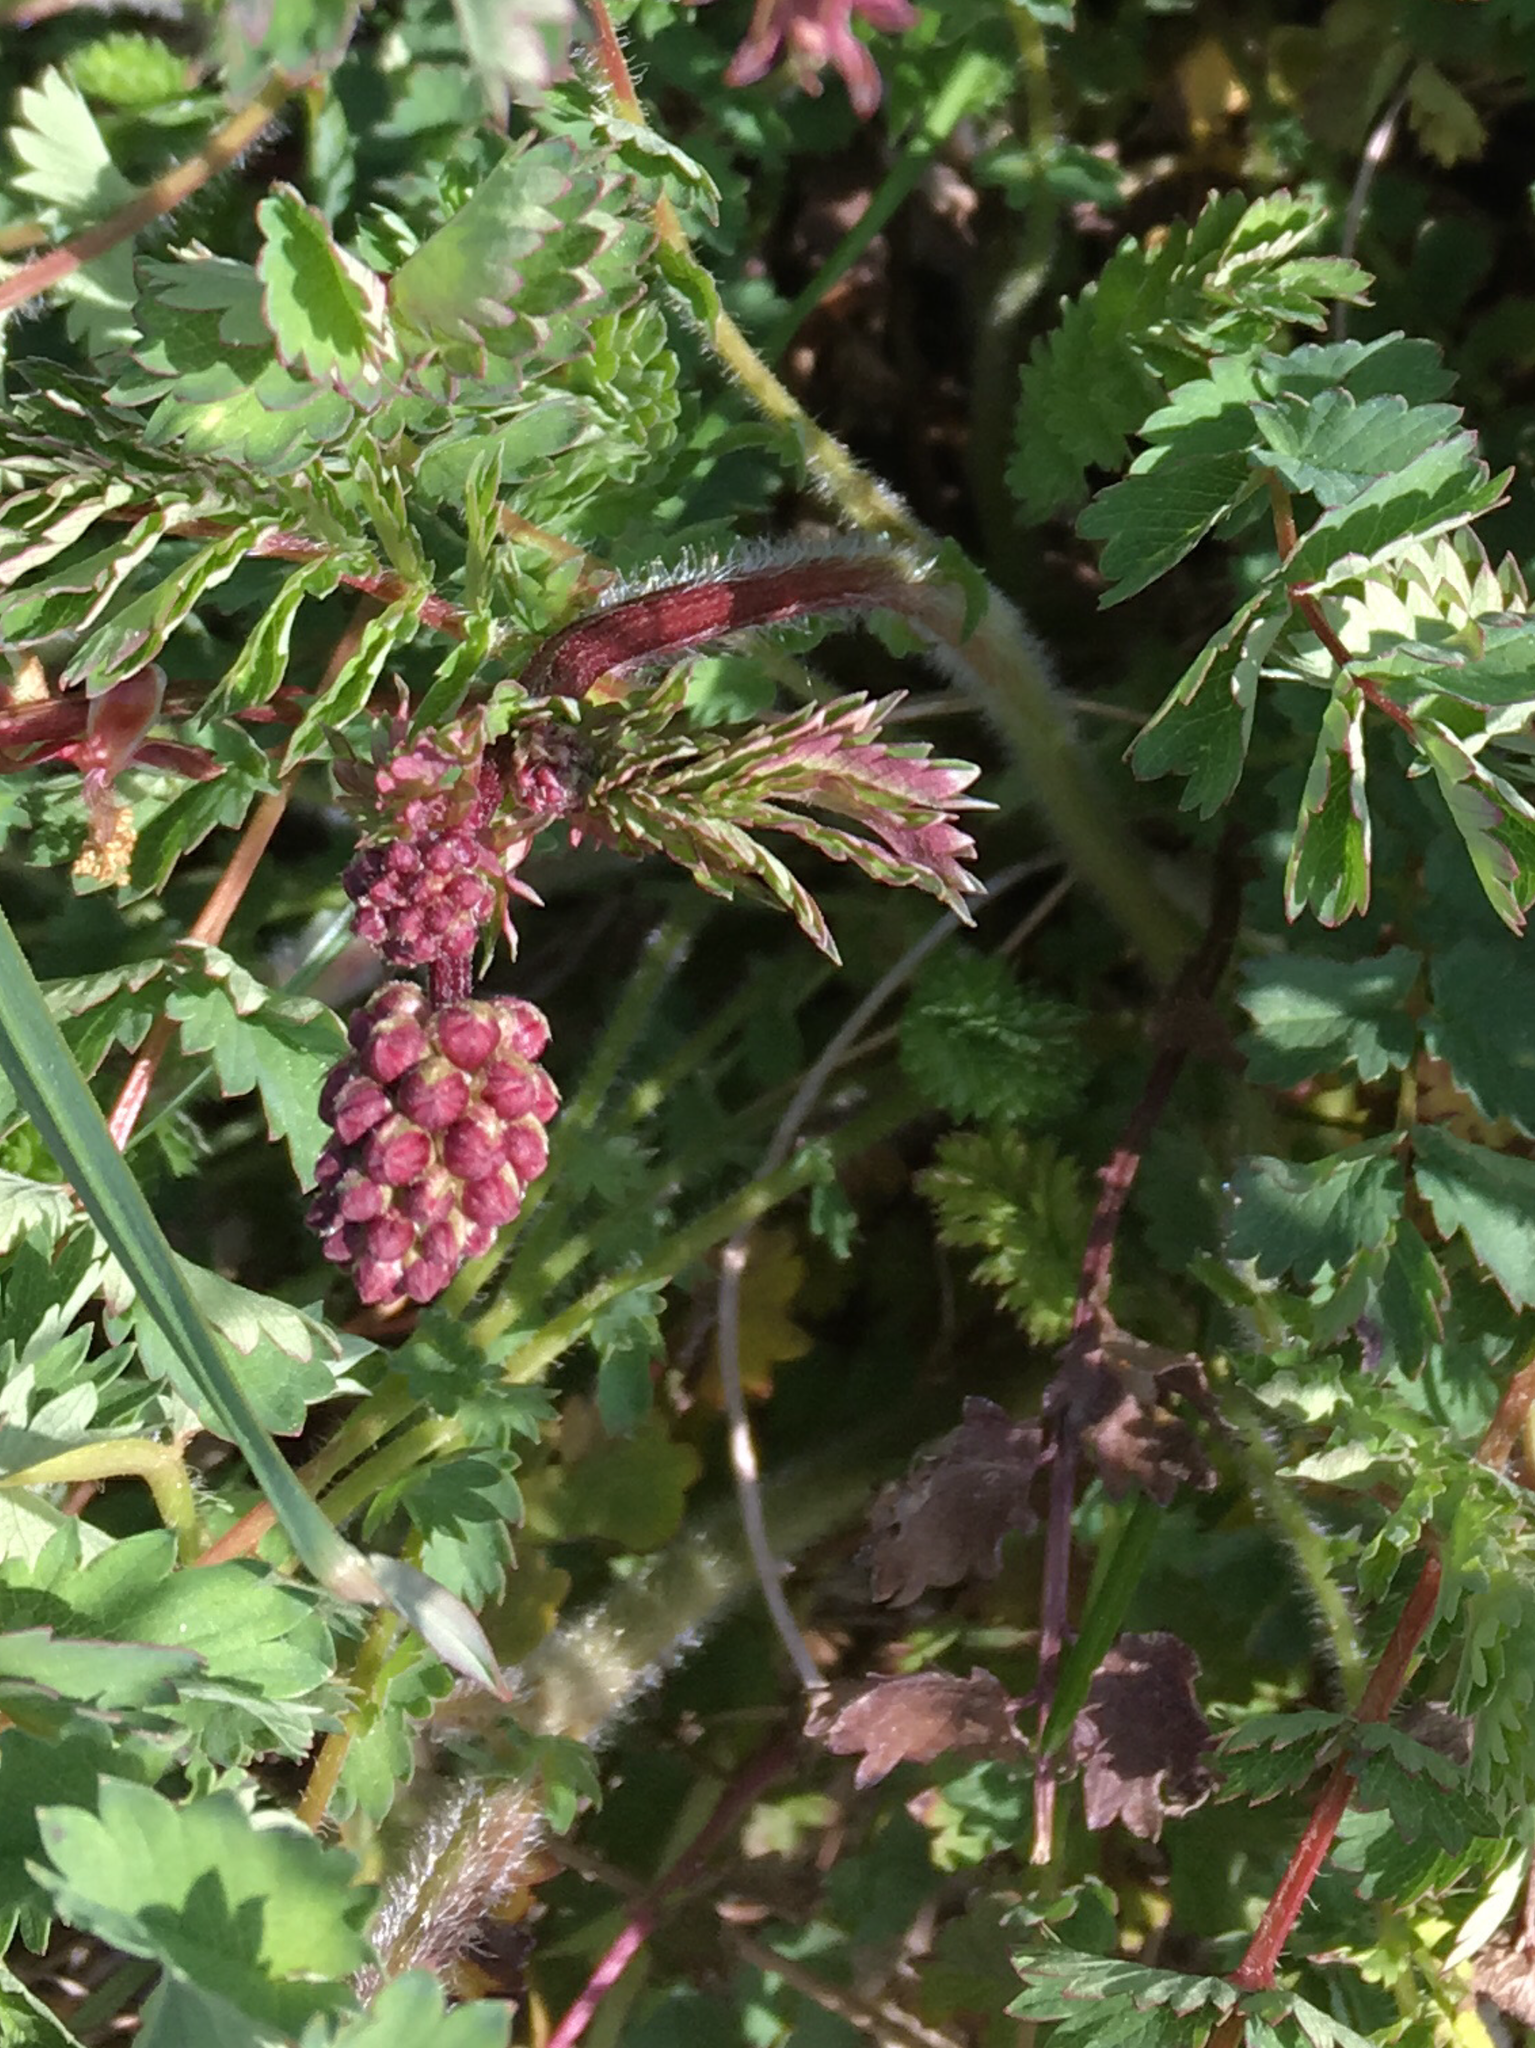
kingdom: Plantae
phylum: Tracheophyta
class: Magnoliopsida
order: Rosales
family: Rosaceae
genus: Poterium
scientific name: Poterium sanguisorba
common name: Salad burnet
